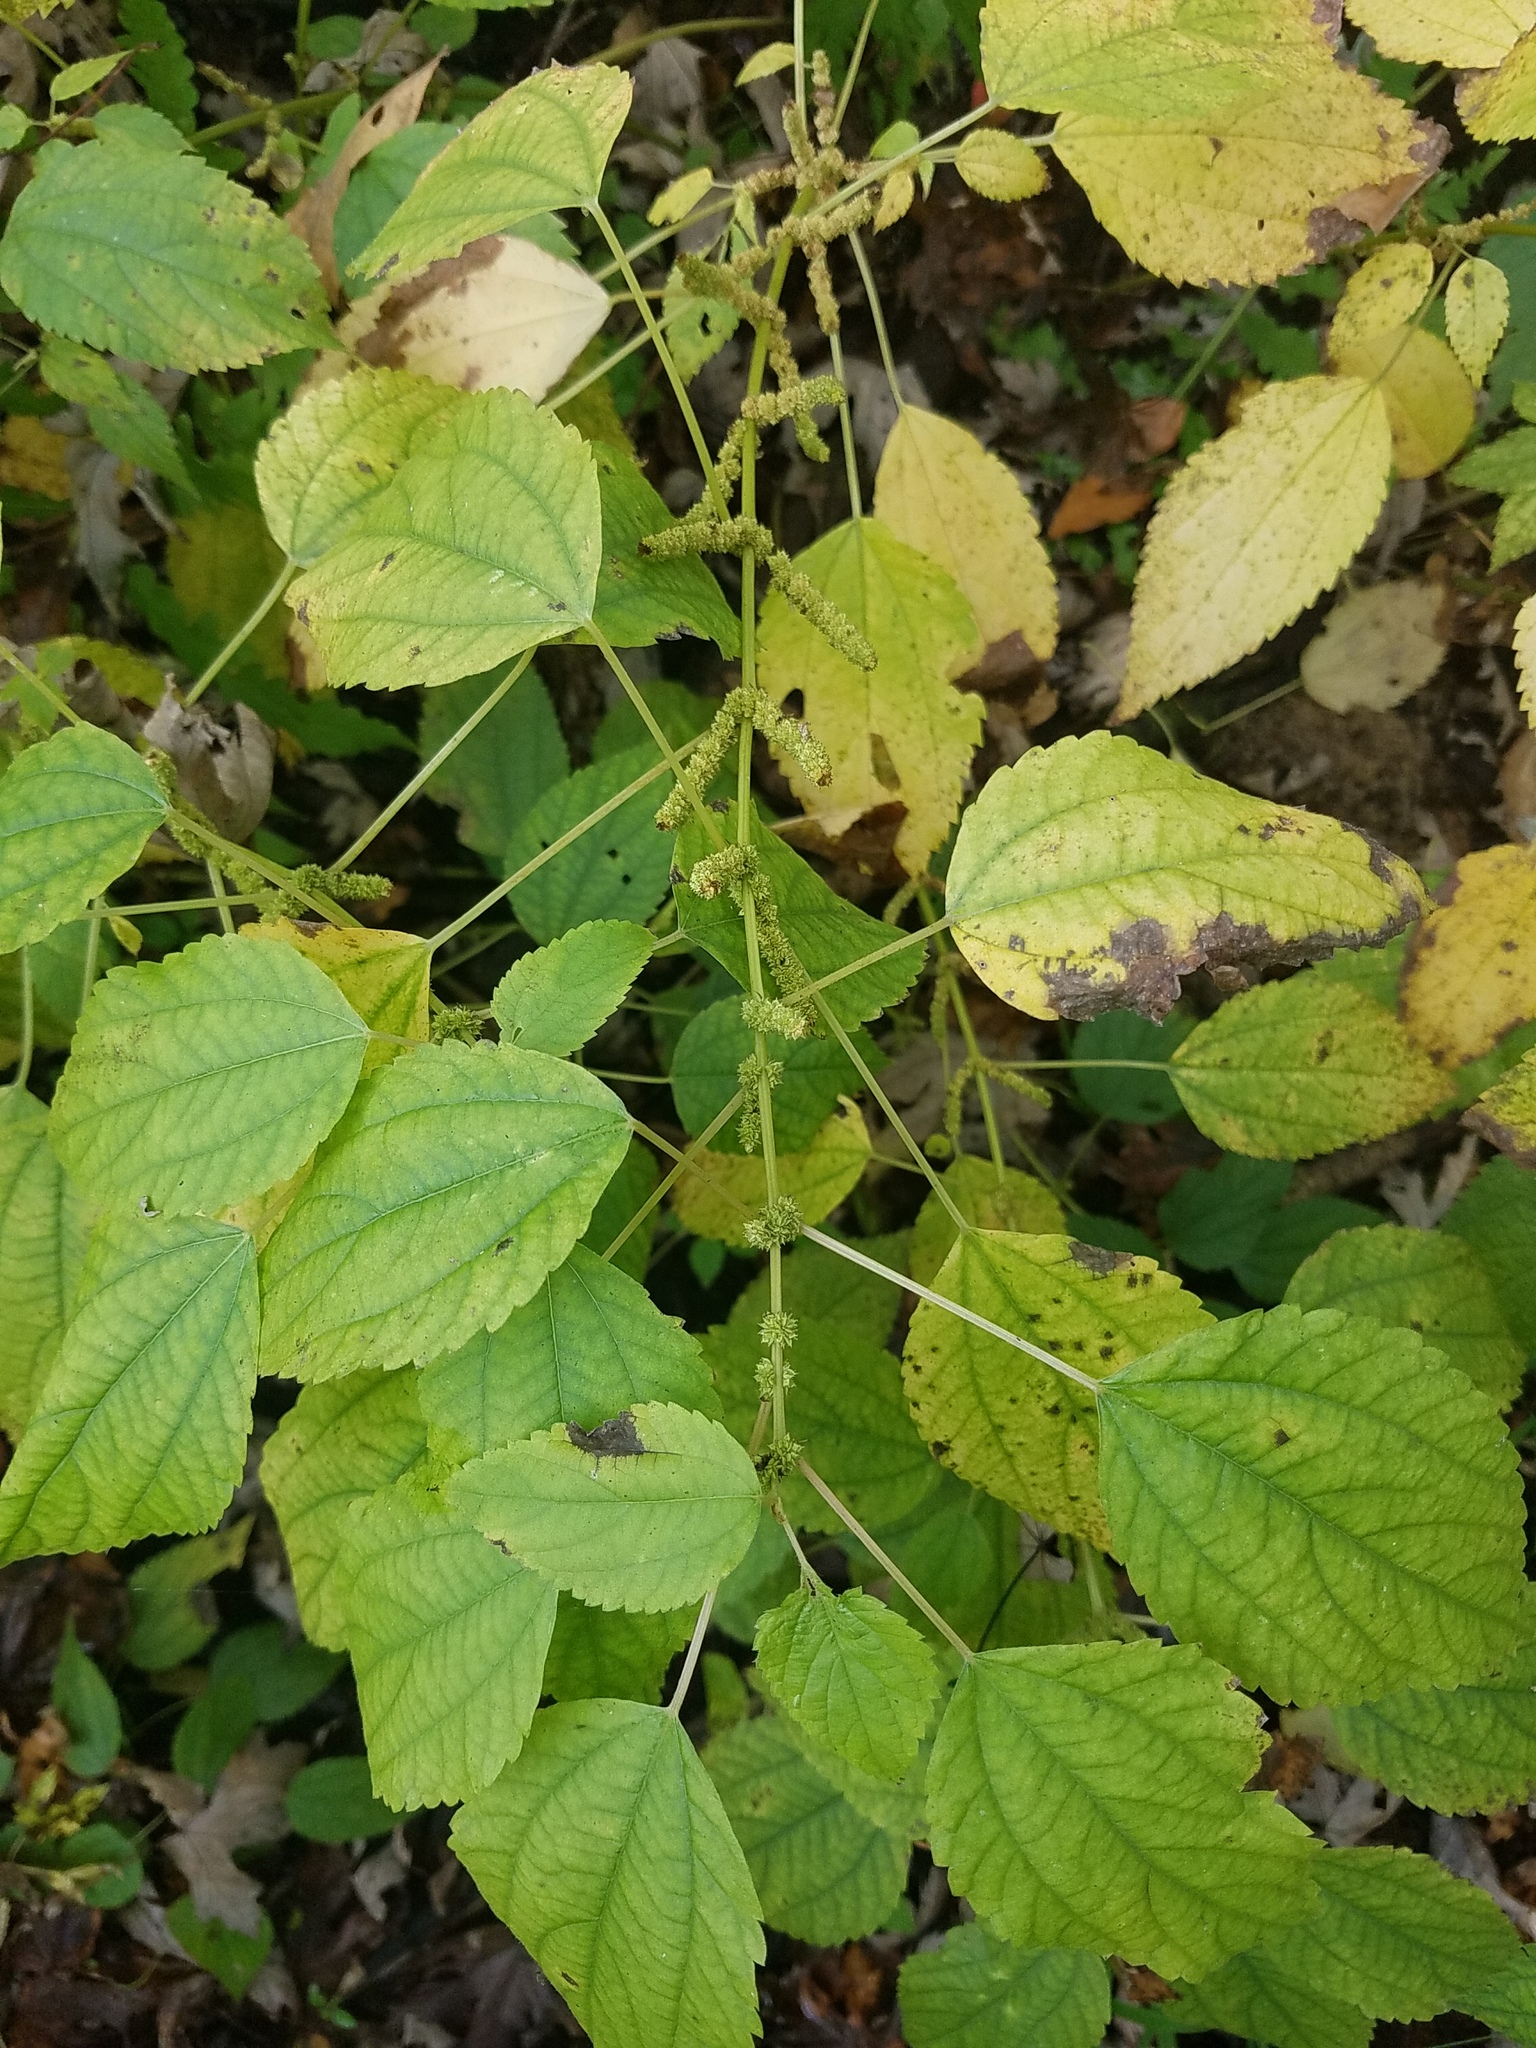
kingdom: Plantae
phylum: Tracheophyta
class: Magnoliopsida
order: Rosales
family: Urticaceae
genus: Boehmeria
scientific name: Boehmeria cylindrica
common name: Bog-hemp
